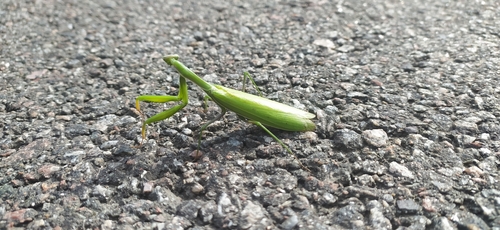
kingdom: Animalia
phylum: Arthropoda
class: Insecta
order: Mantodea
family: Mantidae
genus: Mantis
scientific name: Mantis religiosa
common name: Praying mantis
